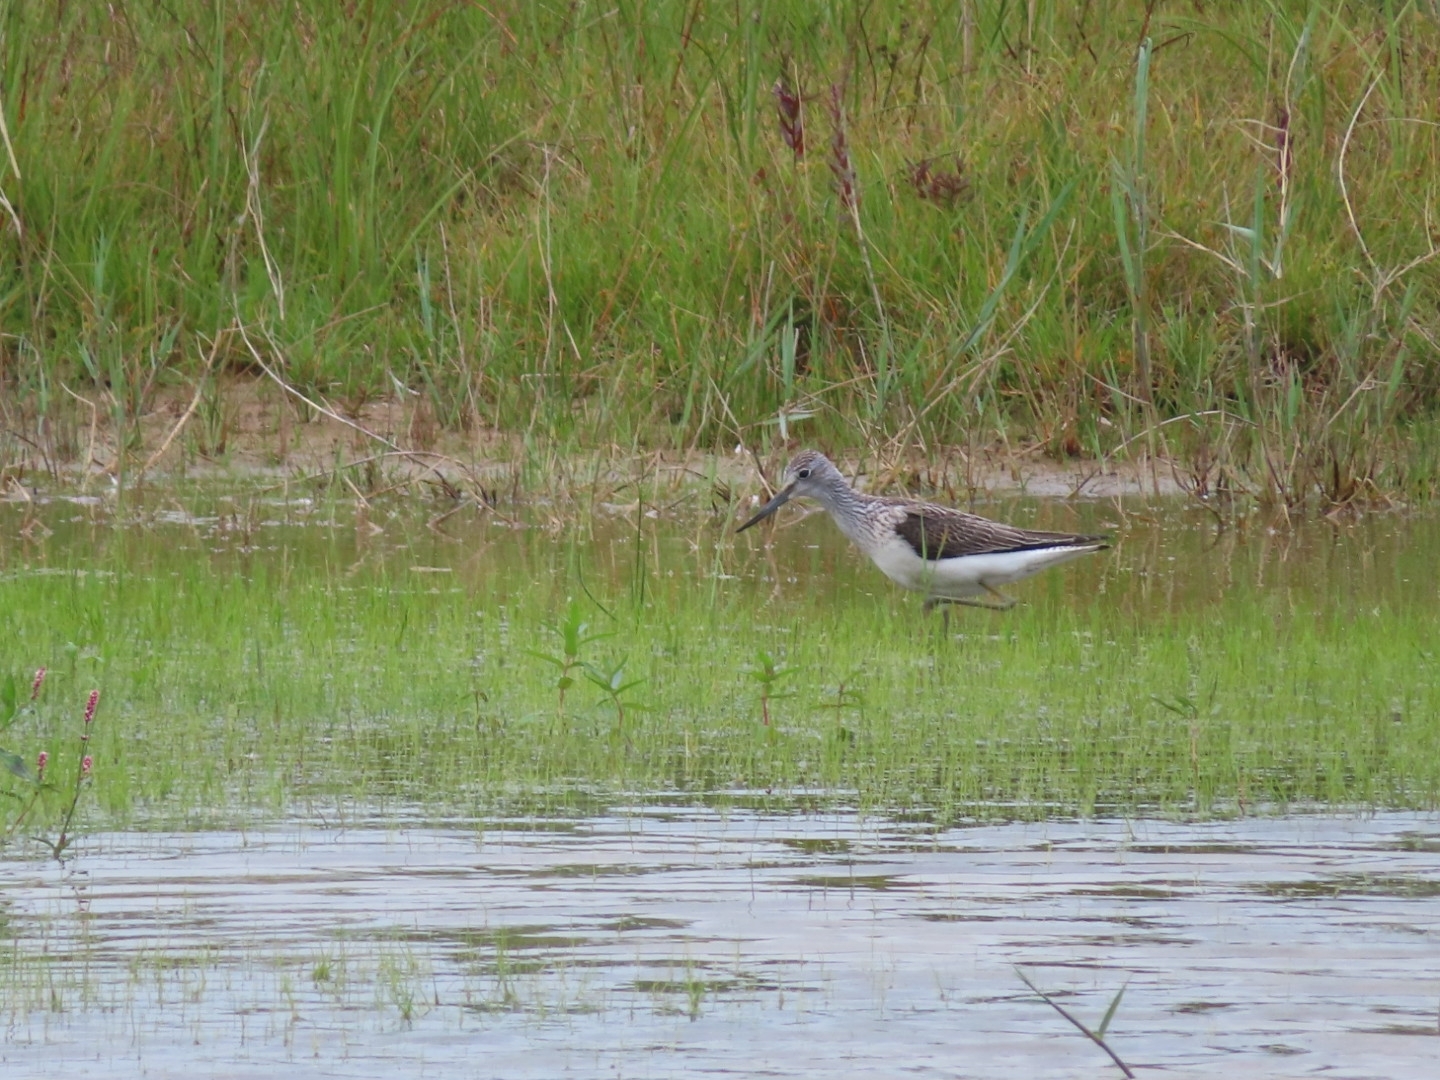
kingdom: Animalia
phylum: Chordata
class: Aves
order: Charadriiformes
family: Scolopacidae
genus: Tringa
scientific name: Tringa nebularia
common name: Common greenshank
